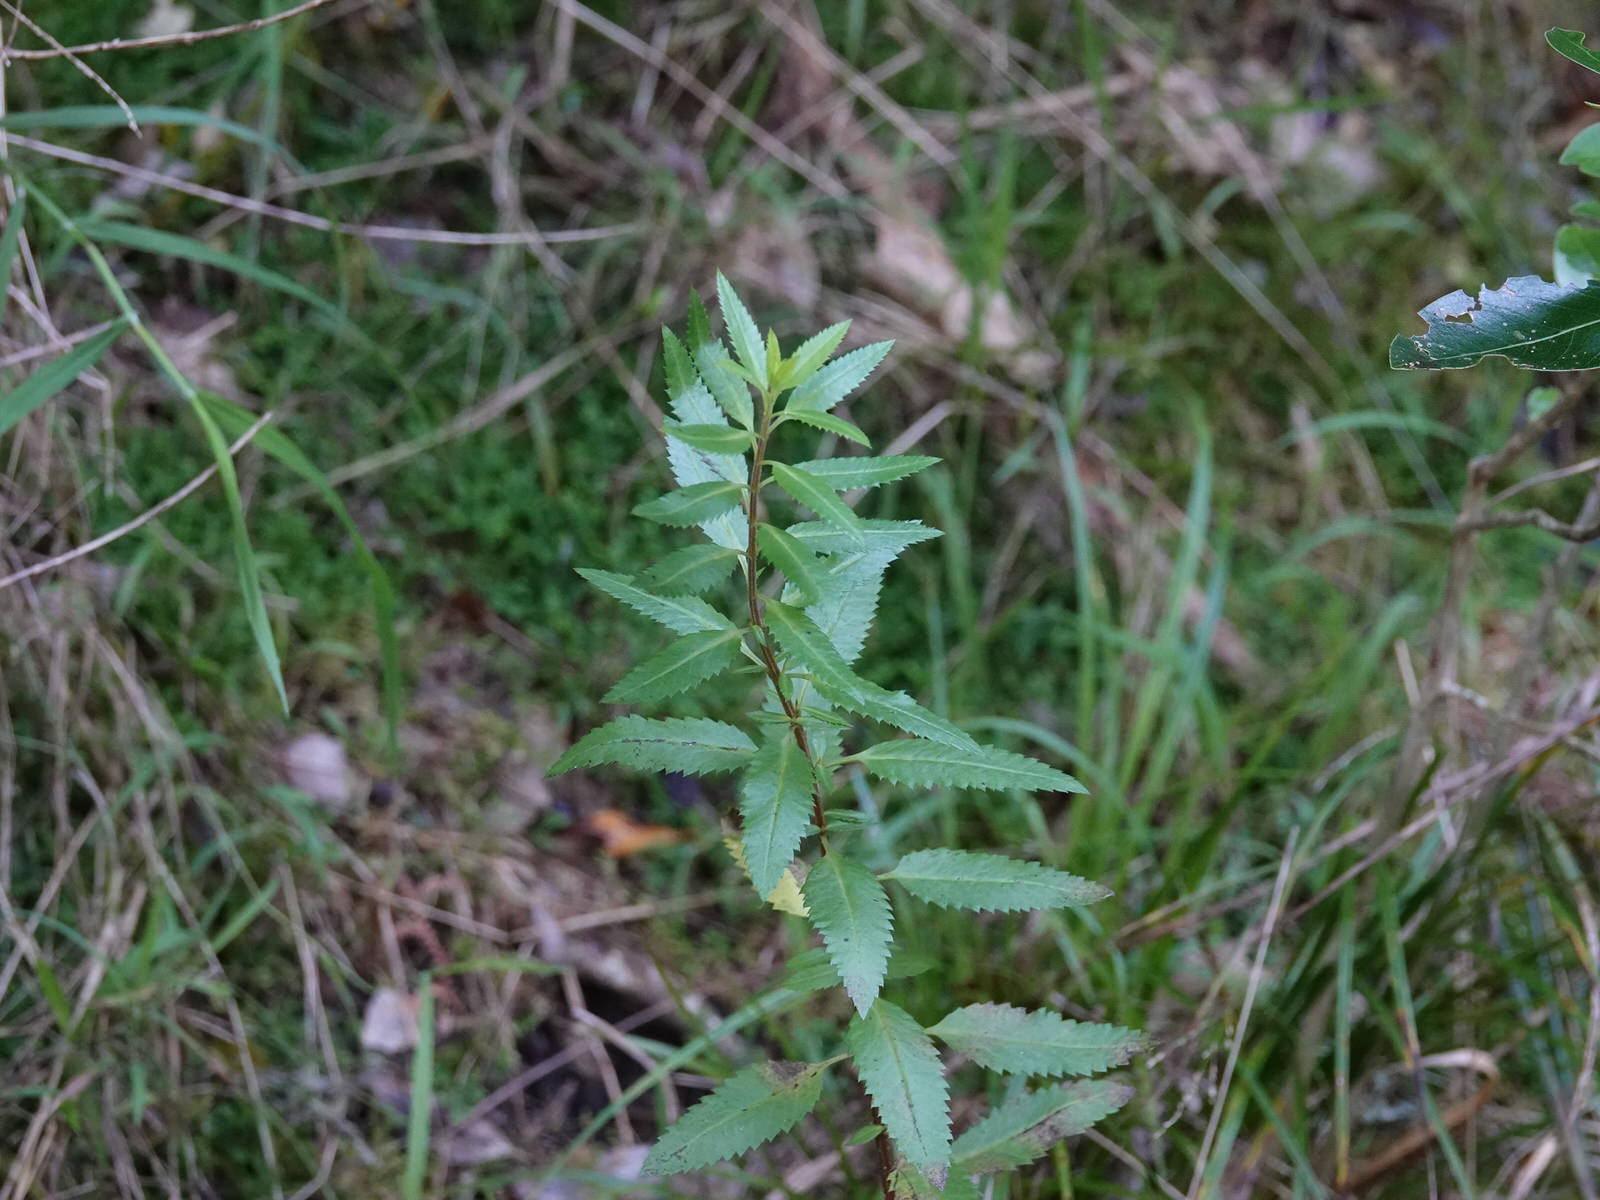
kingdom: Plantae
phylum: Tracheophyta
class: Magnoliopsida
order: Saxifragales
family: Haloragaceae
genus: Haloragis
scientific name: Haloragis erecta
